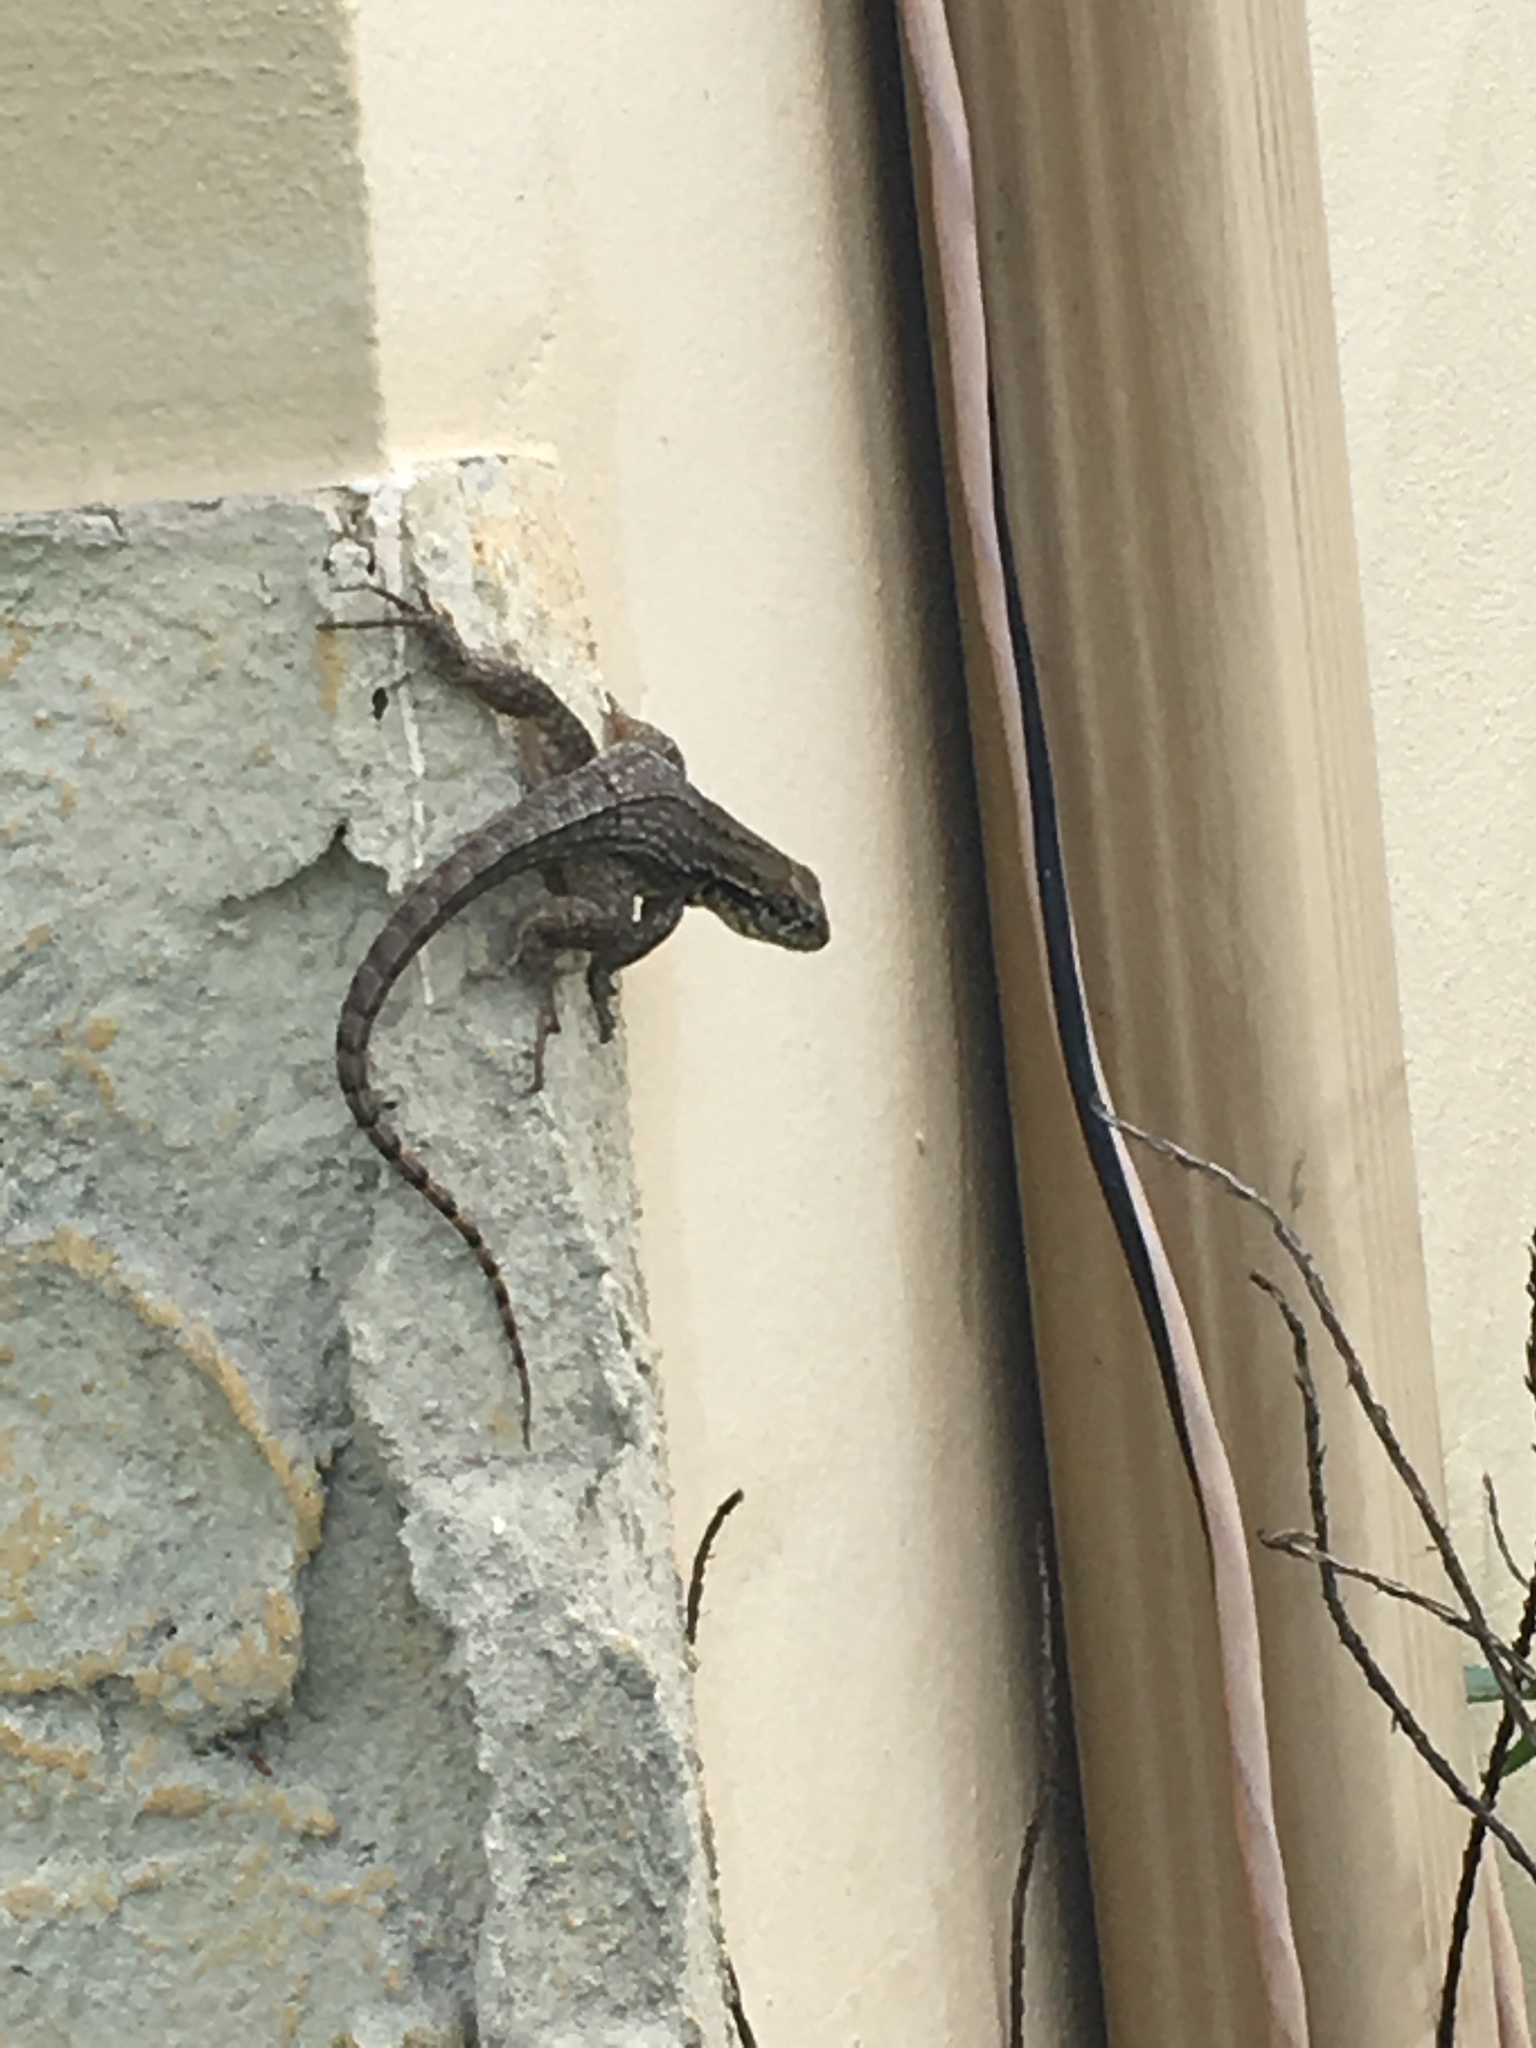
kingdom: Animalia
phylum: Chordata
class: Squamata
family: Leiocephalidae
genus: Leiocephalus
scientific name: Leiocephalus carinatus
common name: Northern curly-tailed lizard
